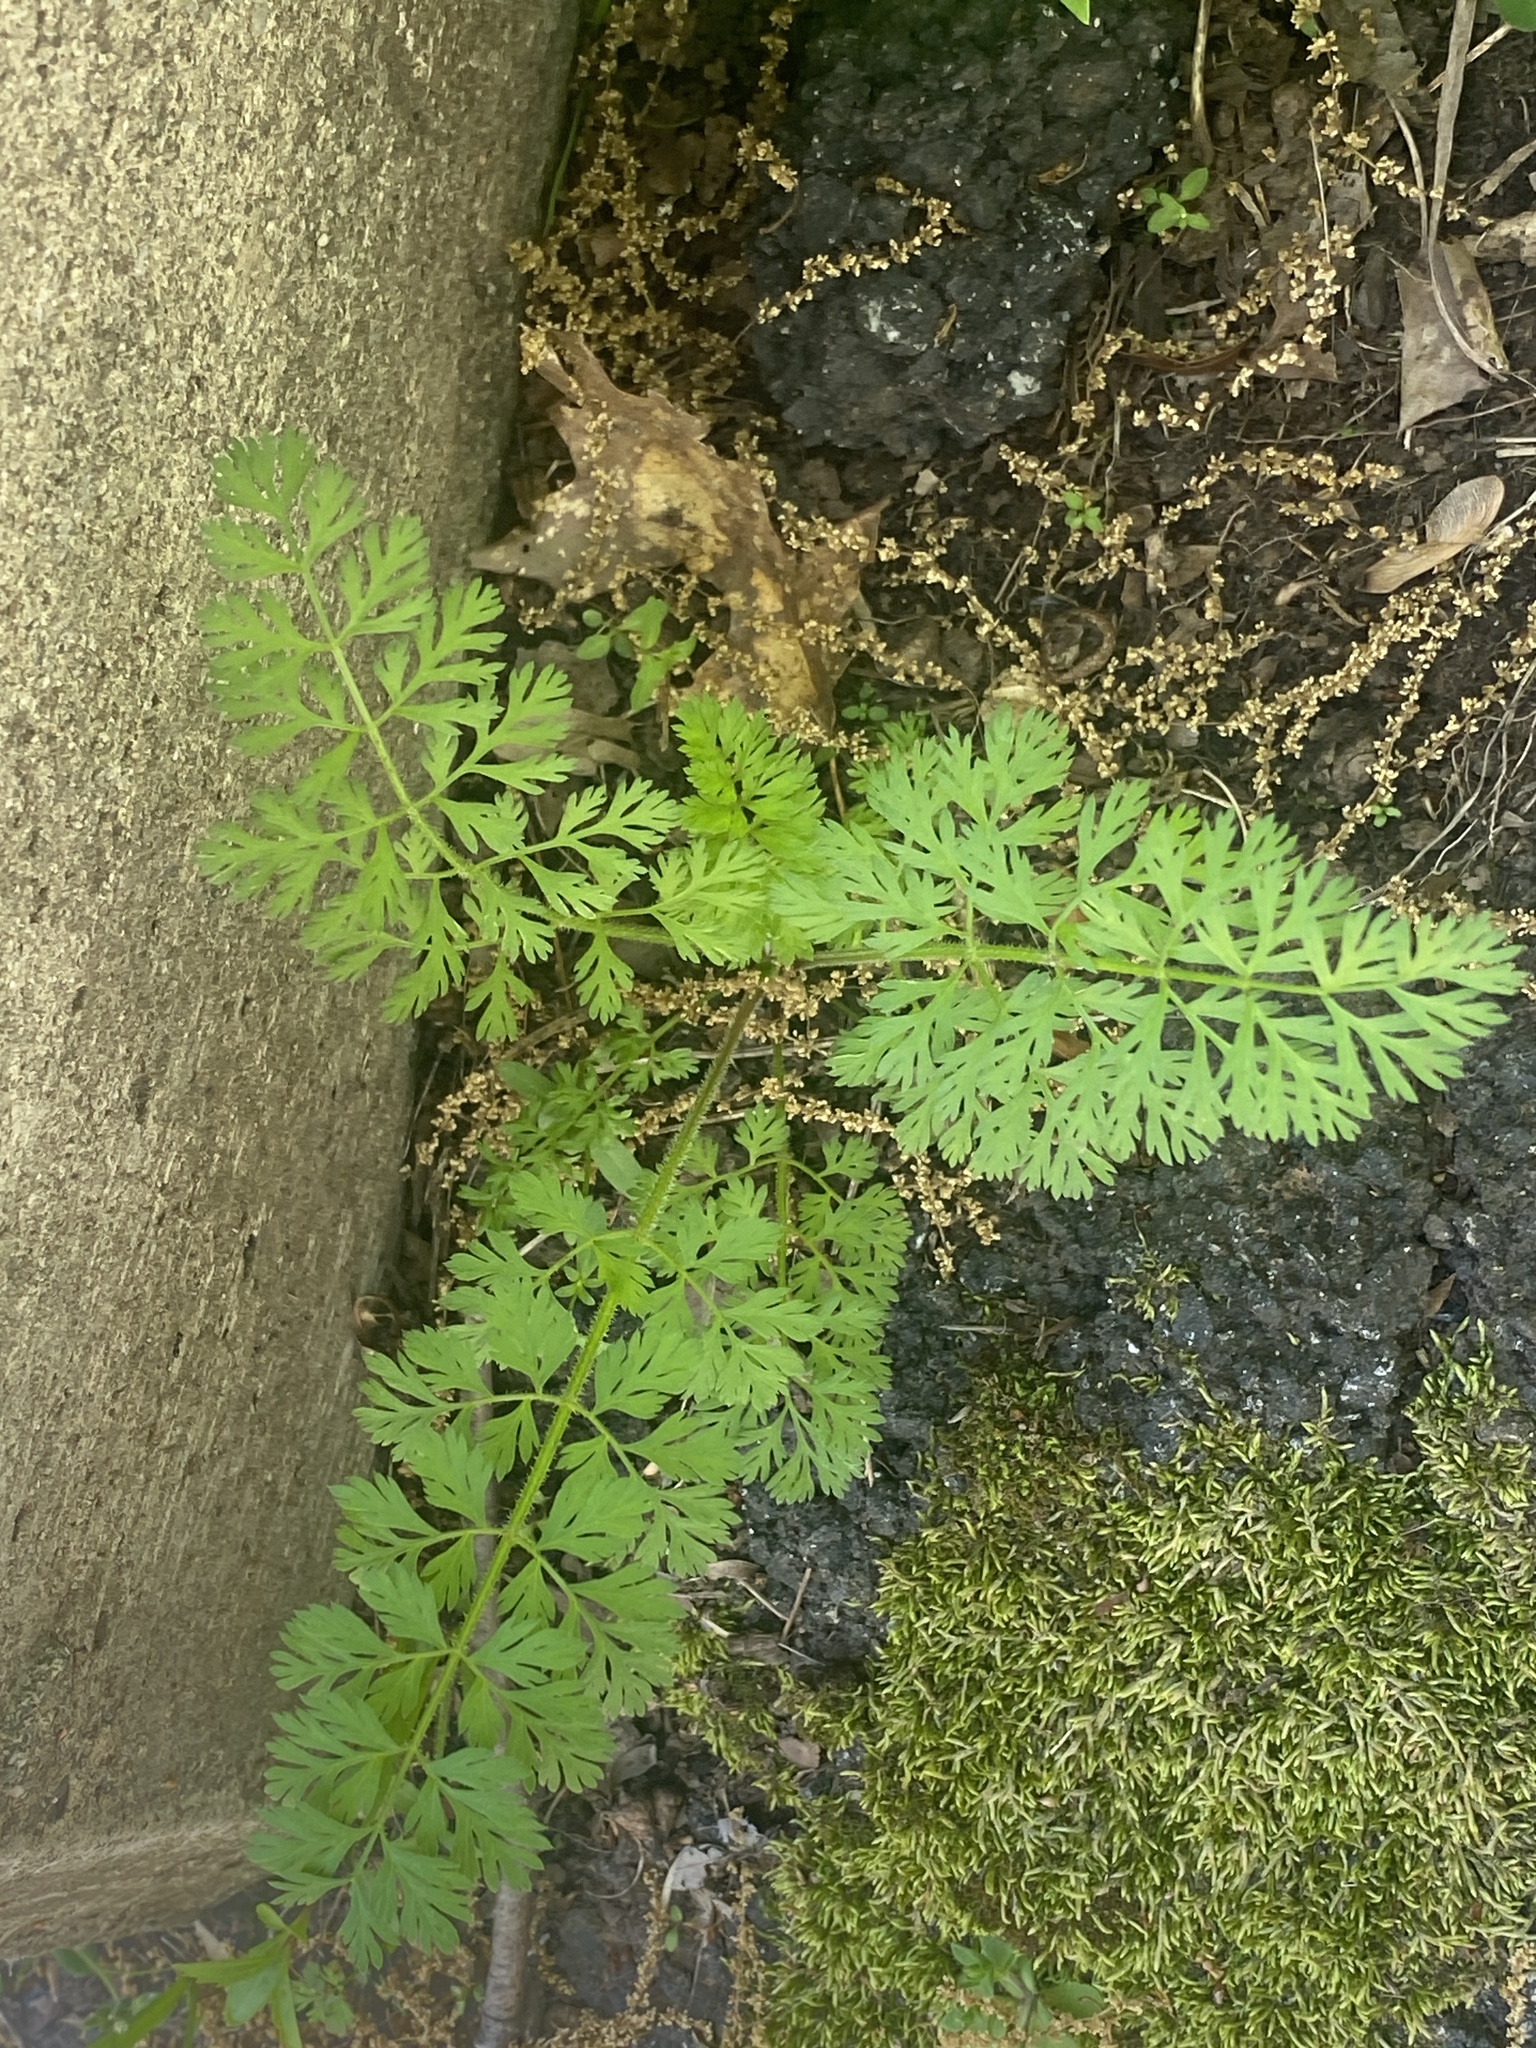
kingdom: Plantae
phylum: Tracheophyta
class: Magnoliopsida
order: Apiales
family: Apiaceae
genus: Daucus
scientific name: Daucus carota
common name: Wild carrot
